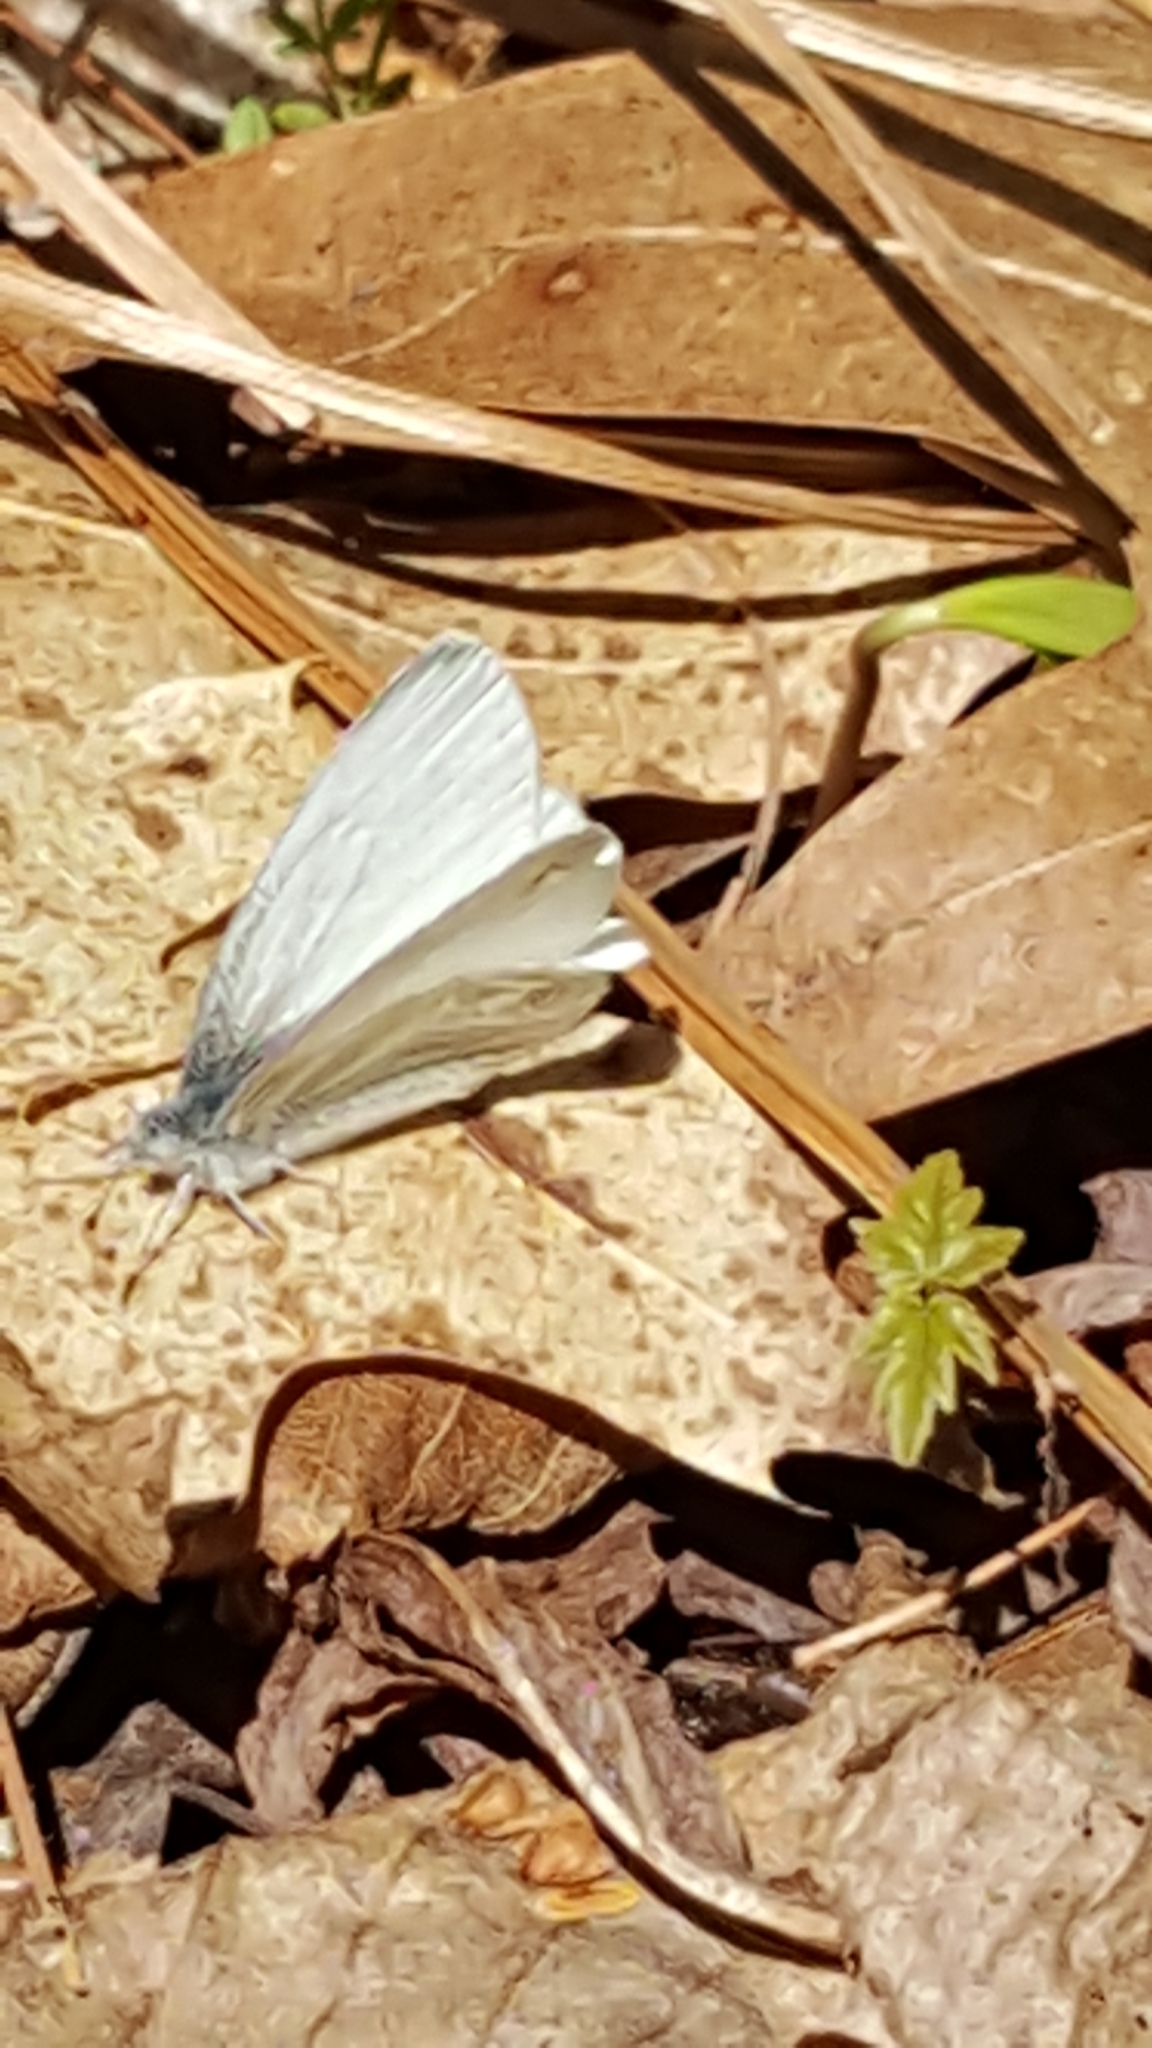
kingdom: Animalia
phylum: Arthropoda
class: Insecta
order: Lepidoptera
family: Pieridae
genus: Pieris
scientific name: Pieris virginiensis
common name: West virginia white
